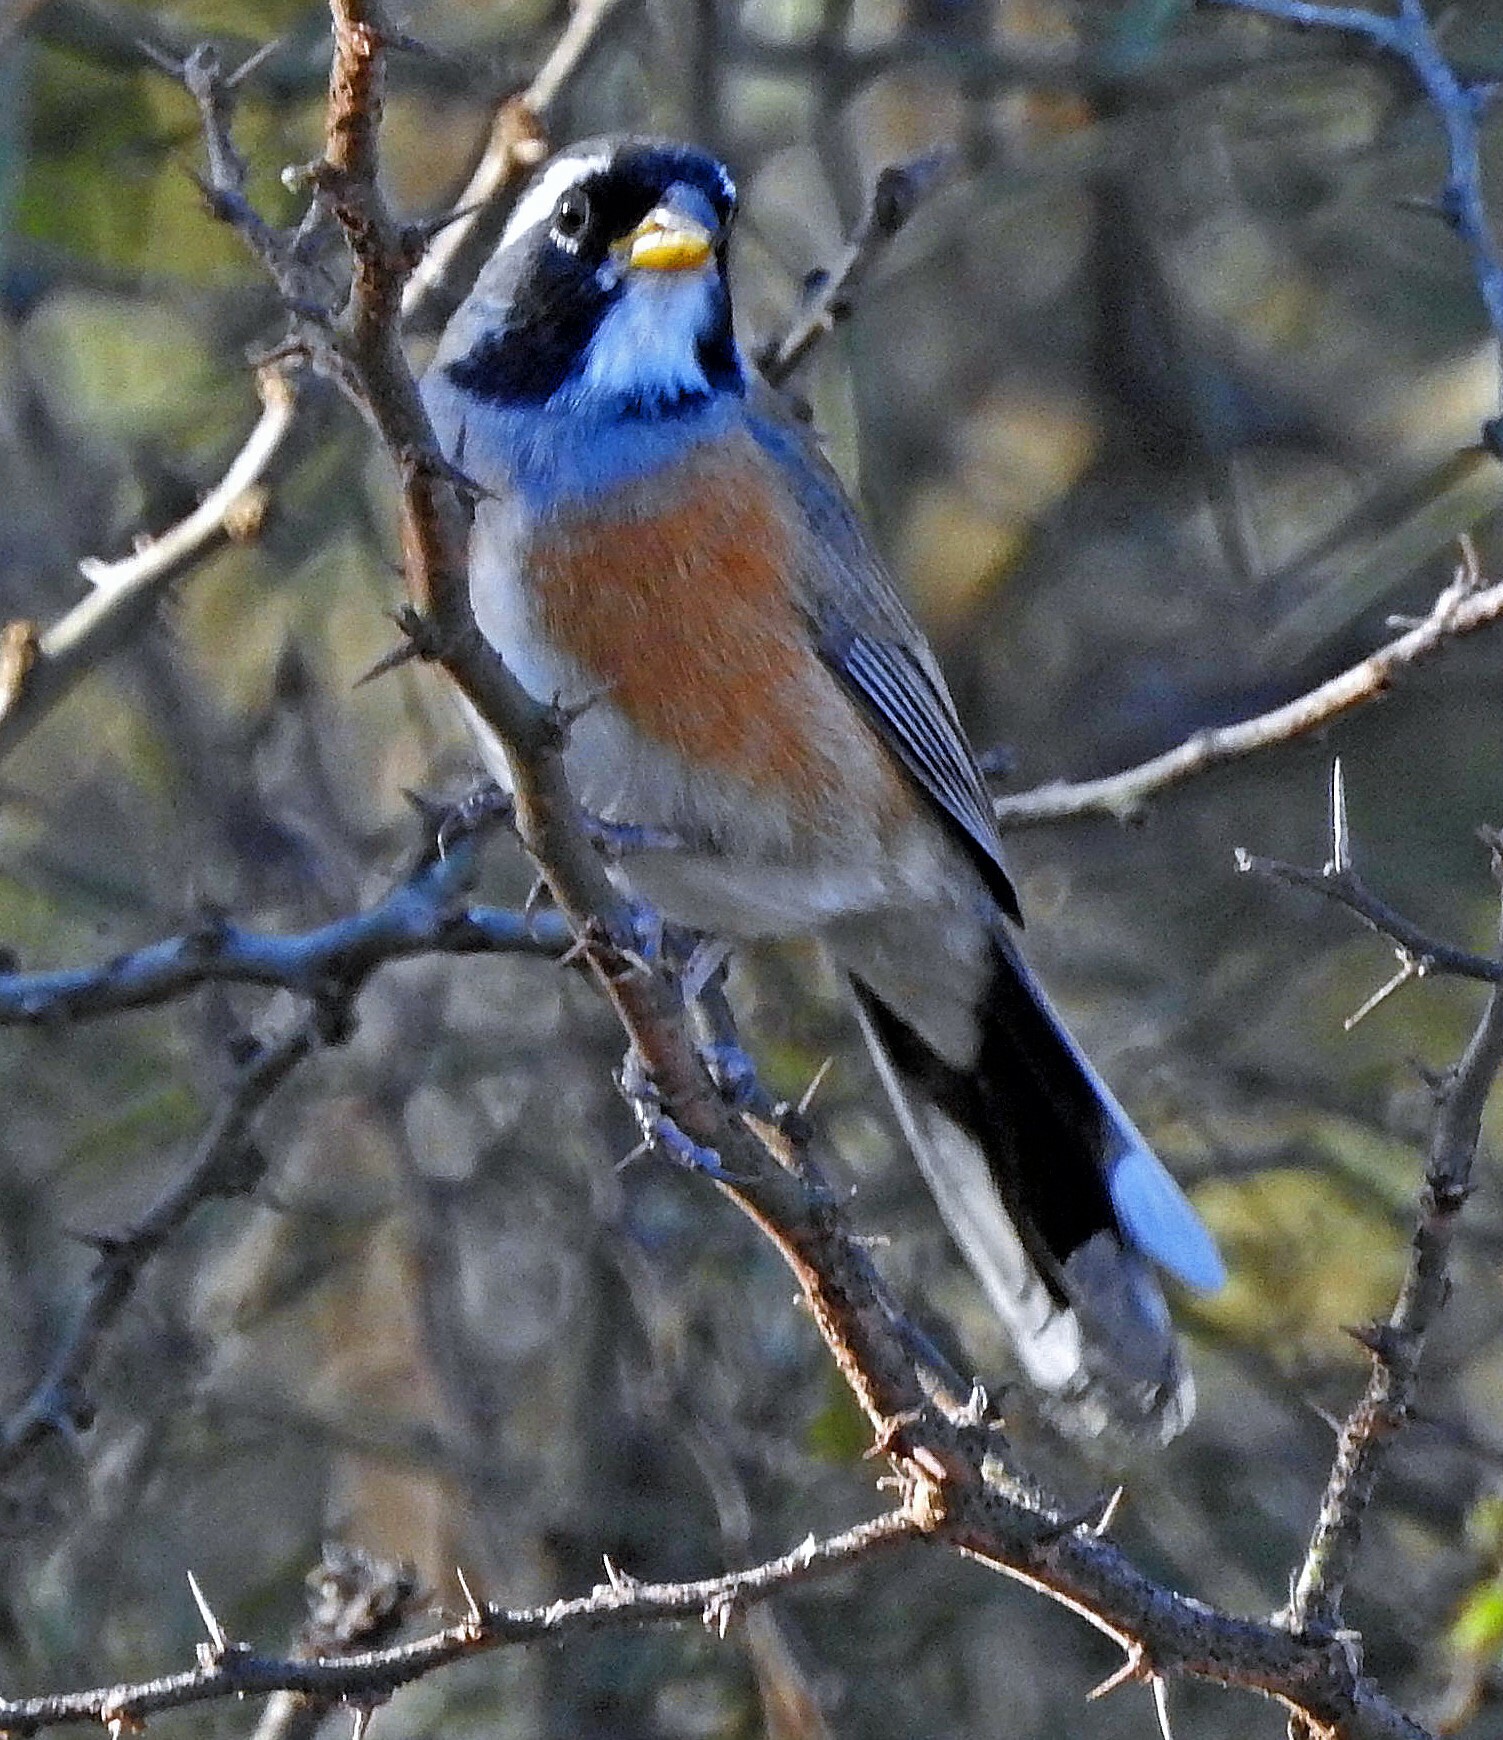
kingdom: Animalia
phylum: Chordata
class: Aves
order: Passeriformes
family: Thraupidae
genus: Saltatricula
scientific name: Saltatricula multicolor
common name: Many-colored chaco finch
